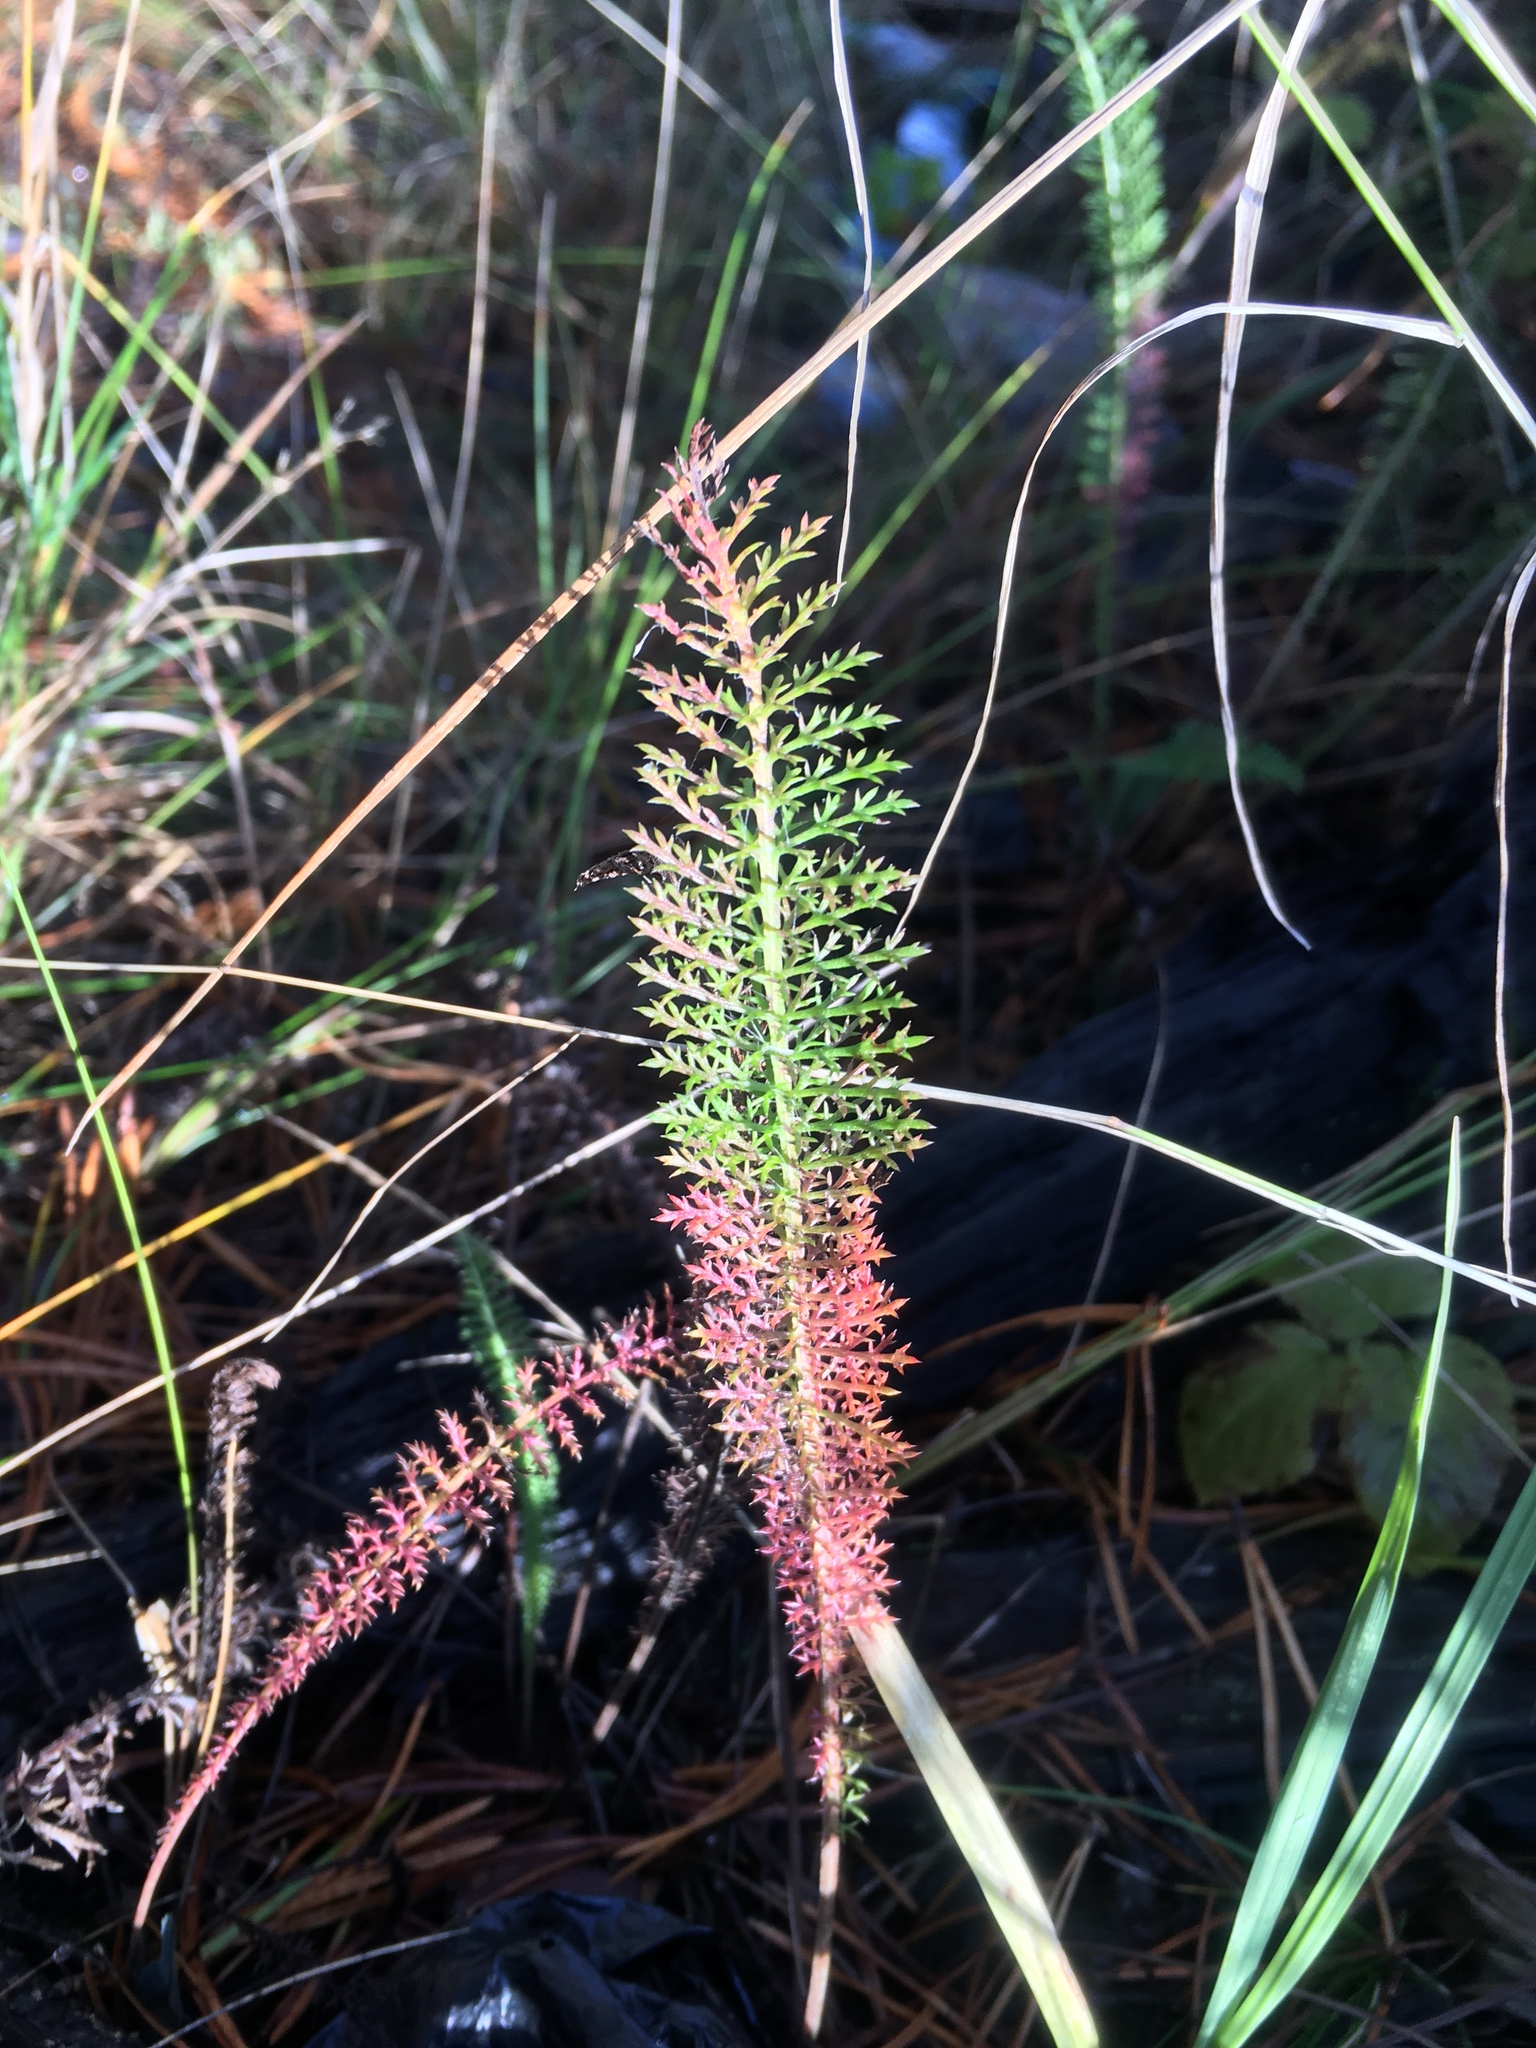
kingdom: Plantae
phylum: Tracheophyta
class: Magnoliopsida
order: Asterales
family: Asteraceae
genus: Achillea
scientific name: Achillea millefolium
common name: Yarrow
